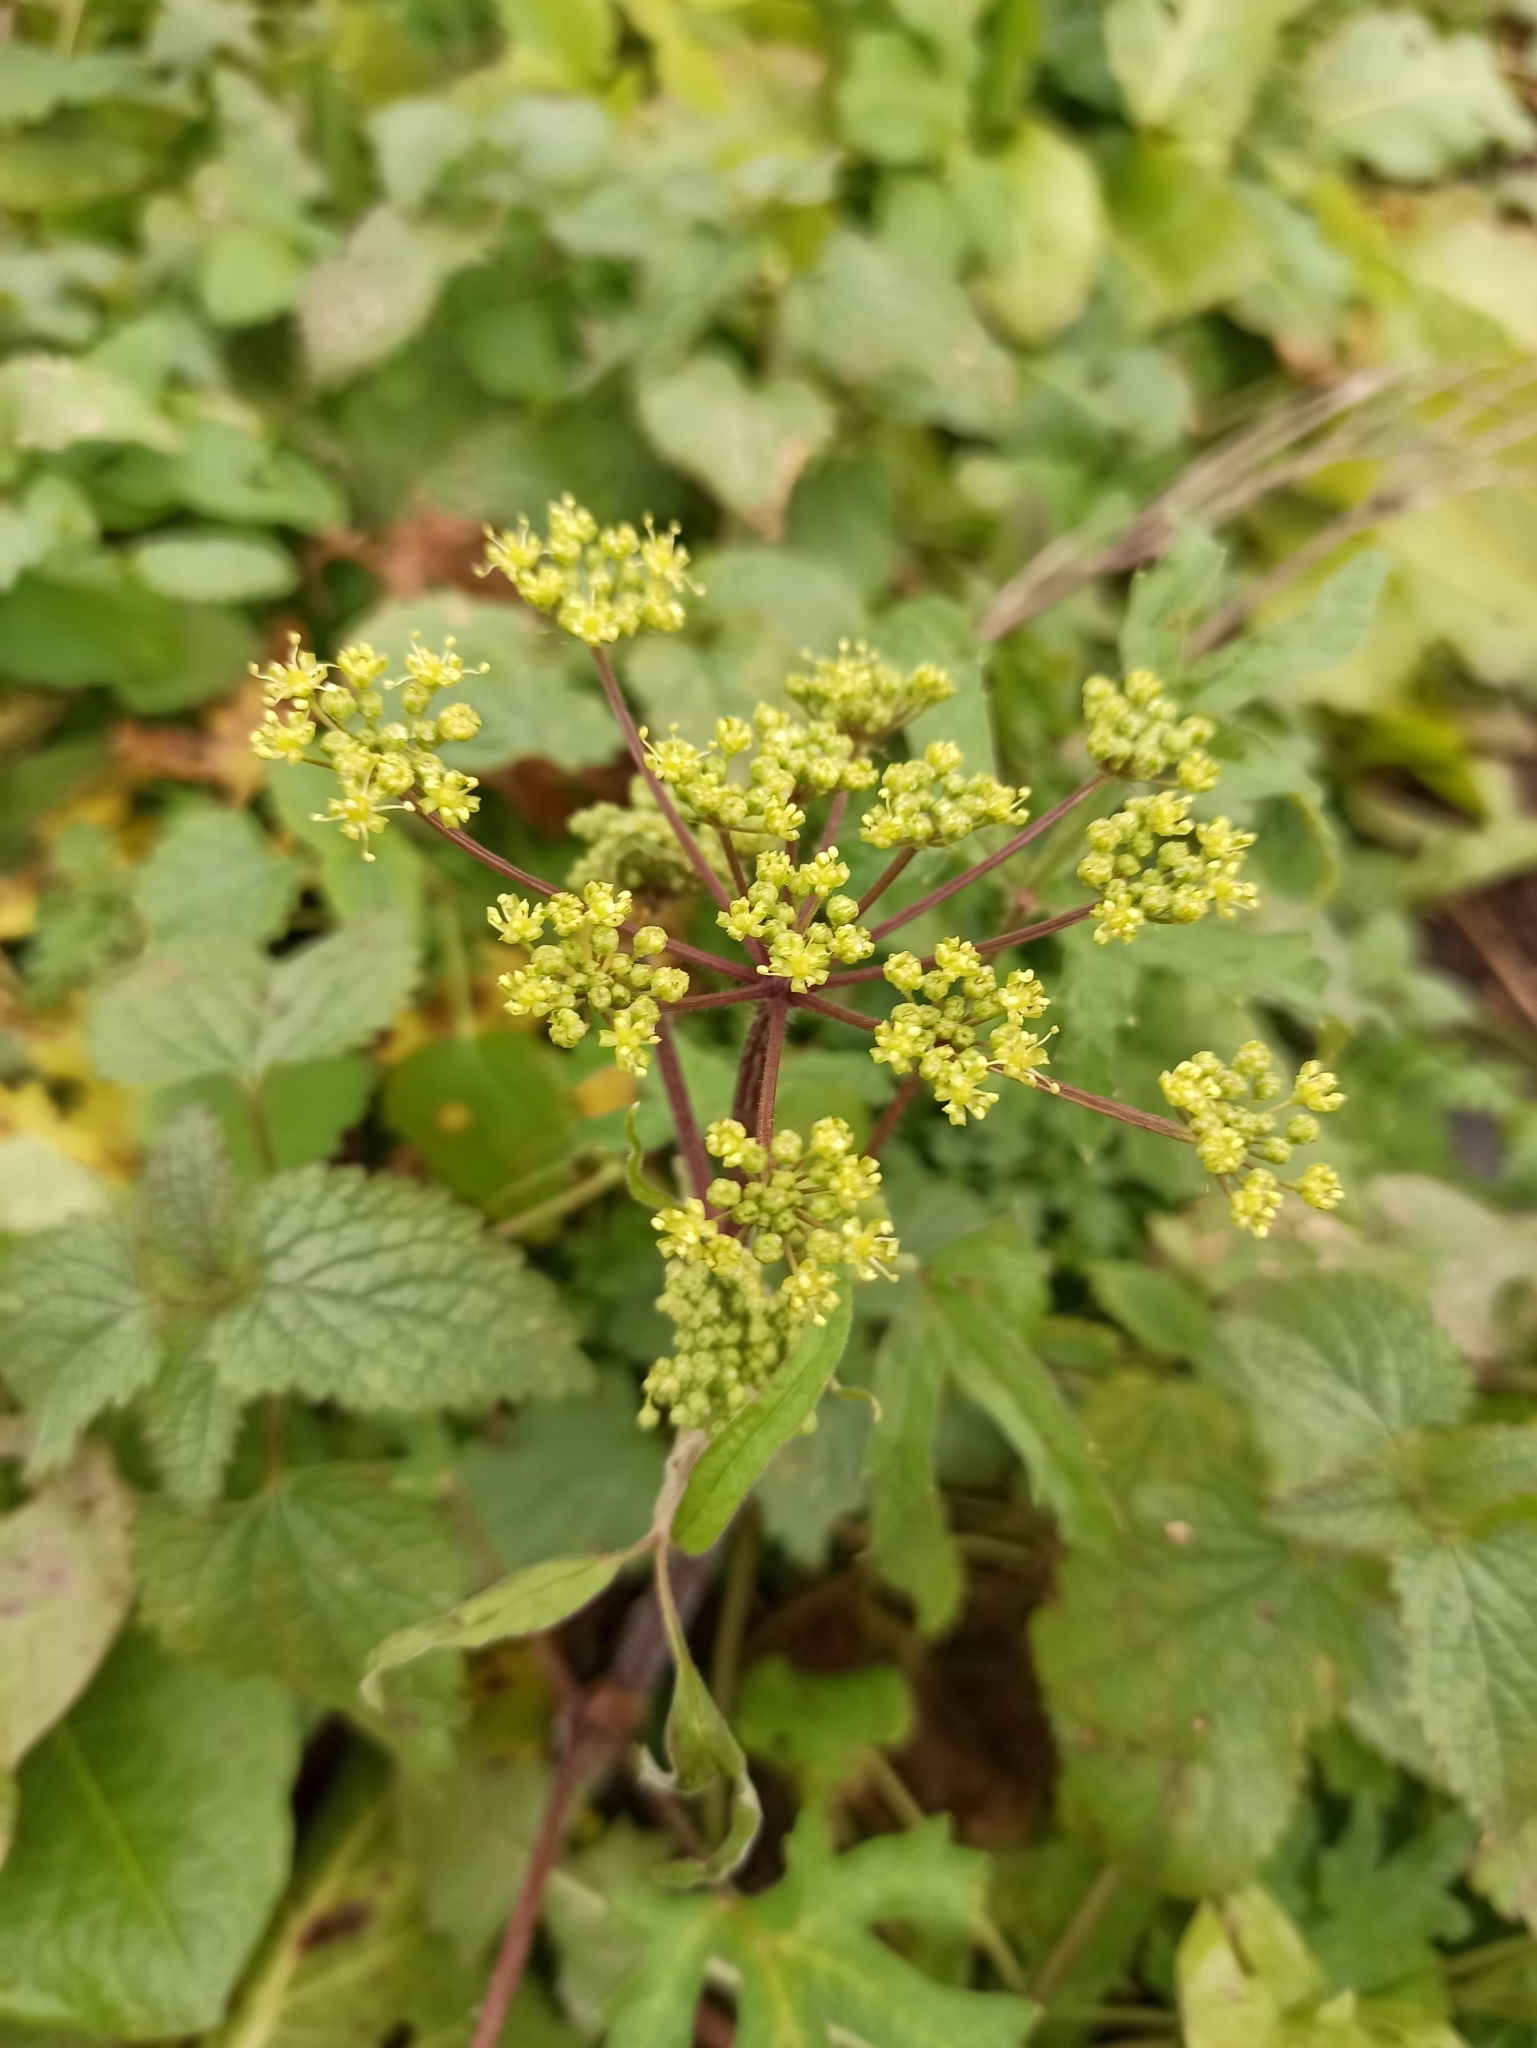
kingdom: Plantae
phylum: Tracheophyta
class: Magnoliopsida
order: Apiales
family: Apiaceae
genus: Heracleum
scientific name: Heracleum sphondylium
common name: Hogweed
